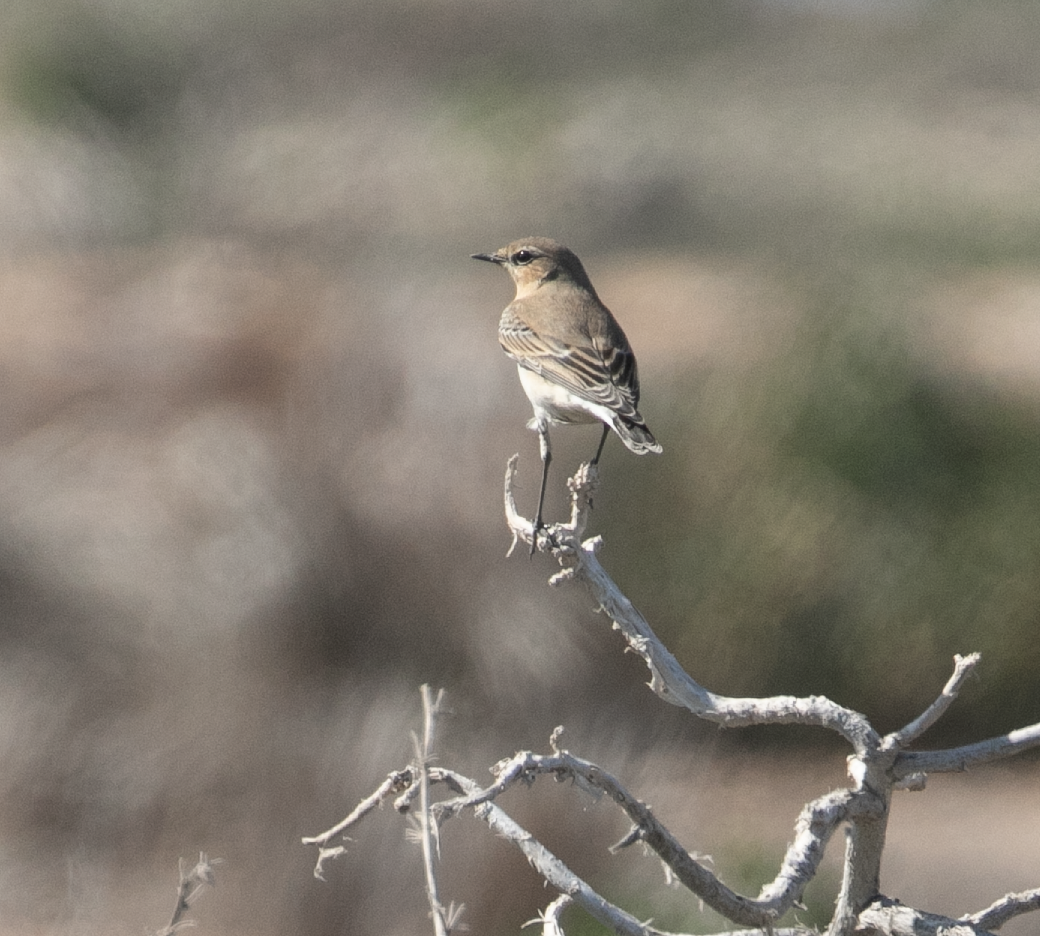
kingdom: Animalia
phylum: Chordata
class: Aves
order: Passeriformes
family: Muscicapidae
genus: Oenanthe
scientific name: Oenanthe oenanthe
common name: Northern wheatear
